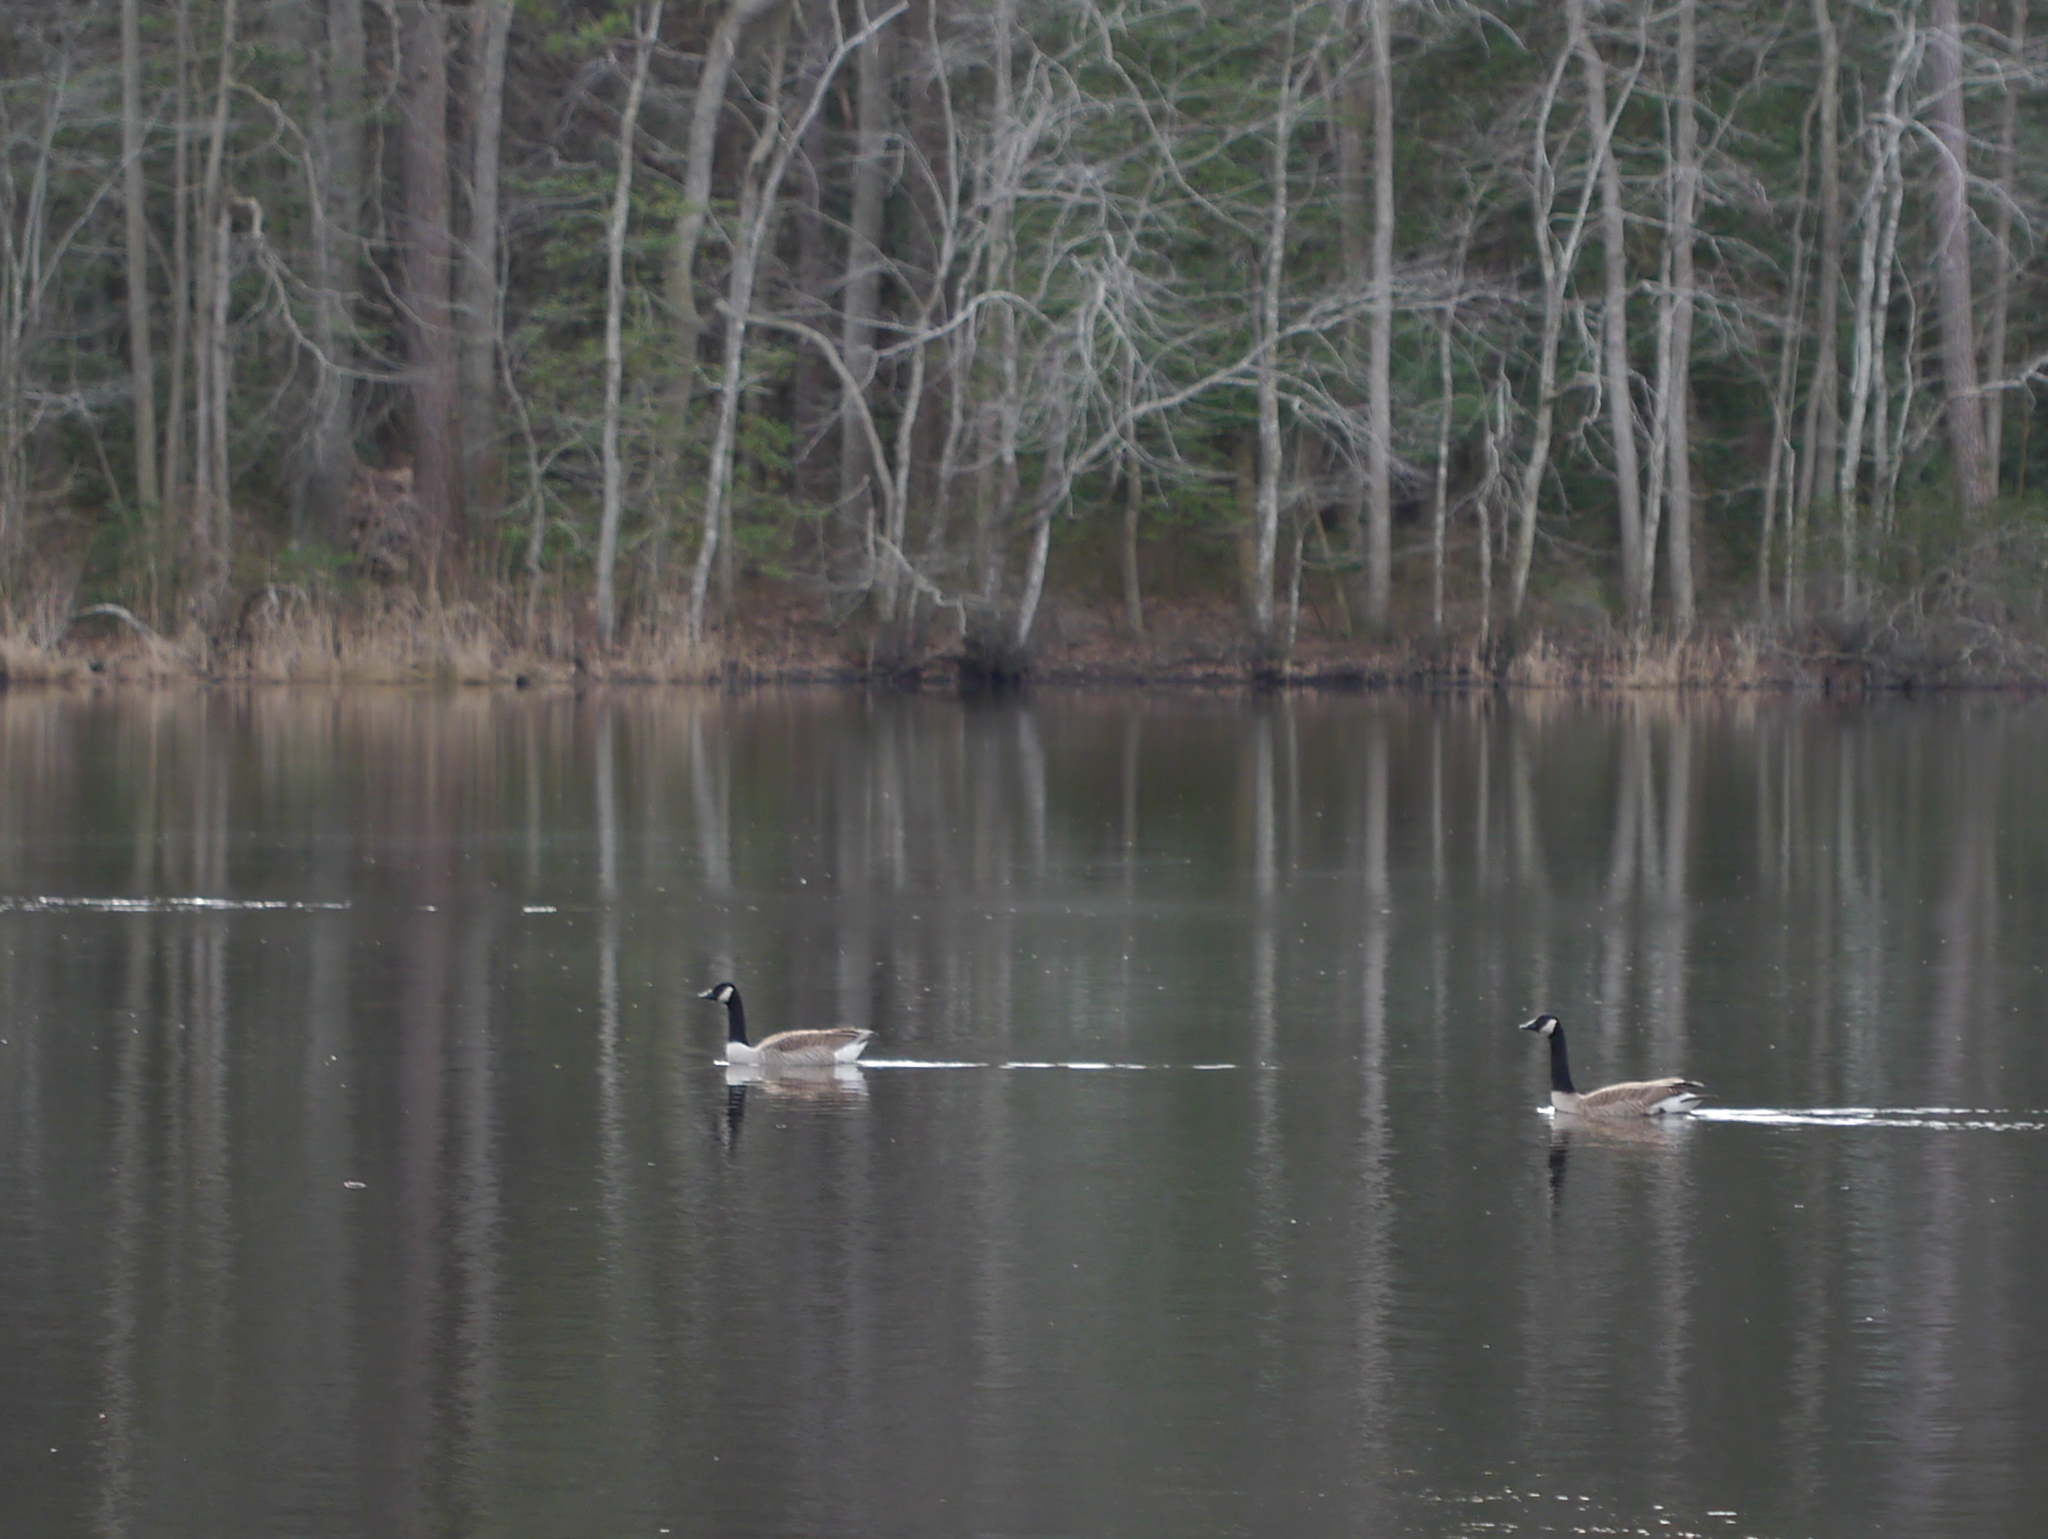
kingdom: Animalia
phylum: Chordata
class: Aves
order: Anseriformes
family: Anatidae
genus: Branta
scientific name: Branta canadensis
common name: Canada goose
